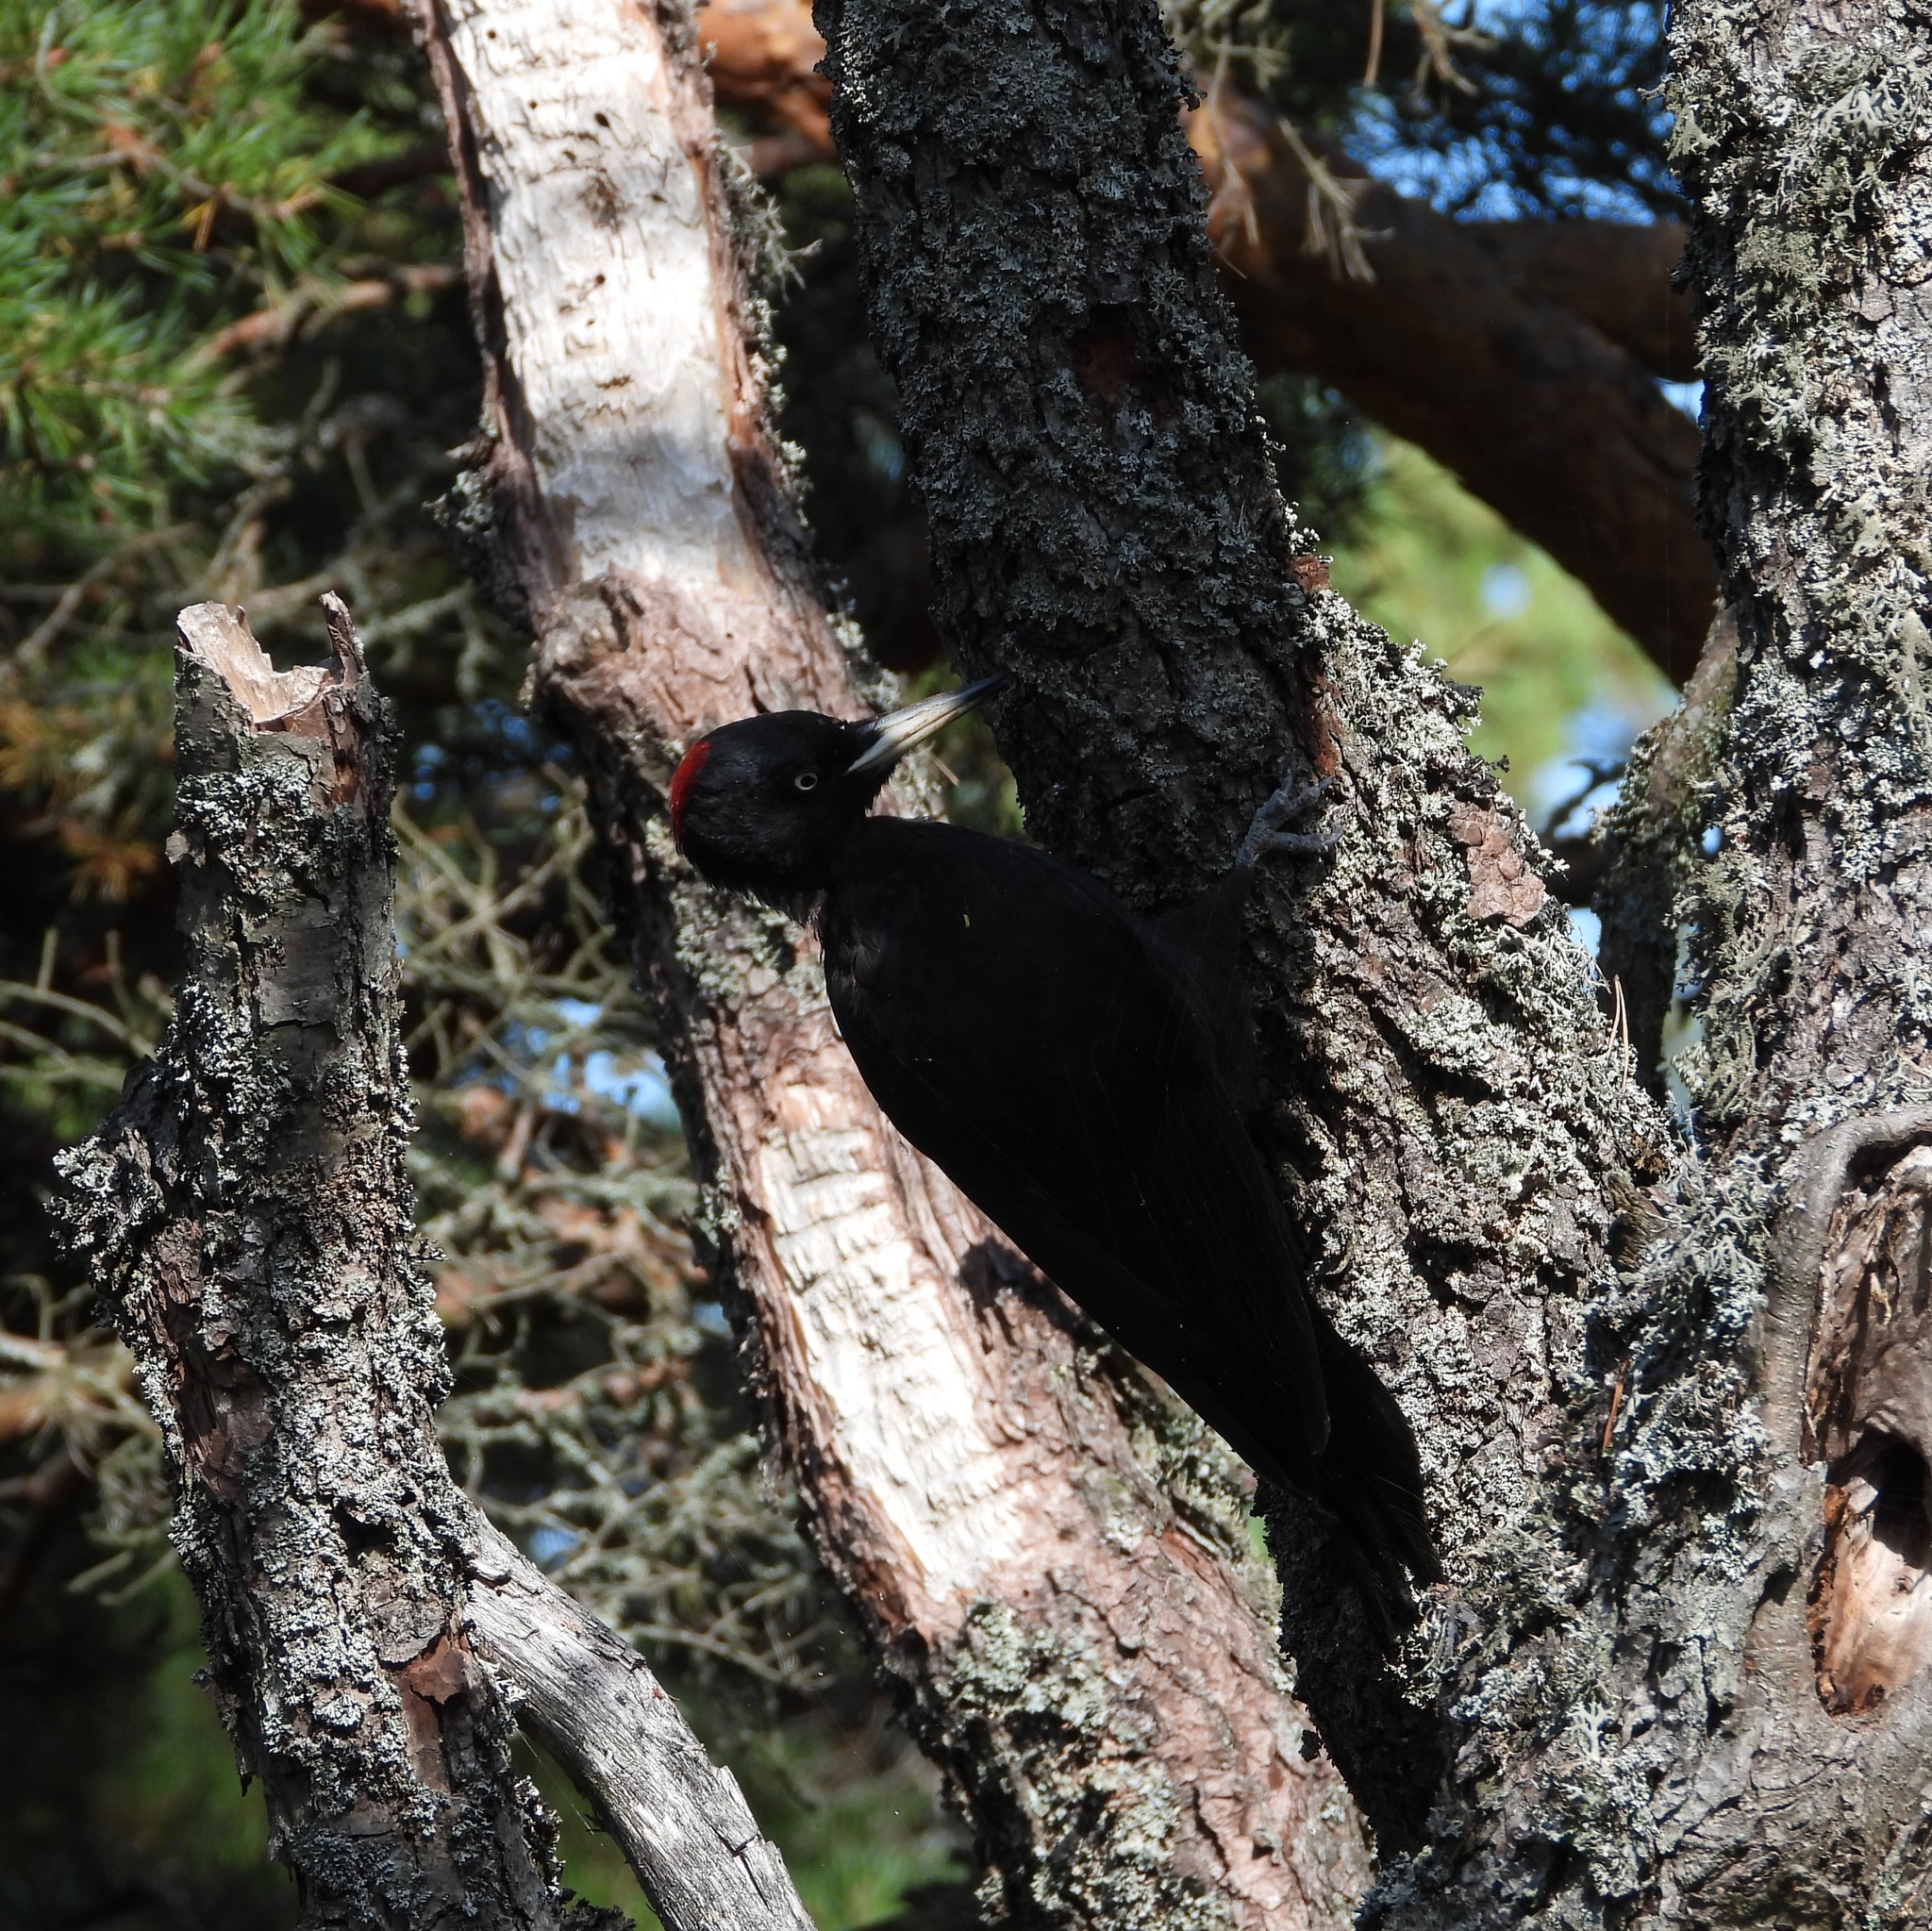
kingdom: Animalia
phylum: Chordata
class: Aves
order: Piciformes
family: Picidae
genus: Dryocopus
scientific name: Dryocopus martius
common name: Black woodpecker
